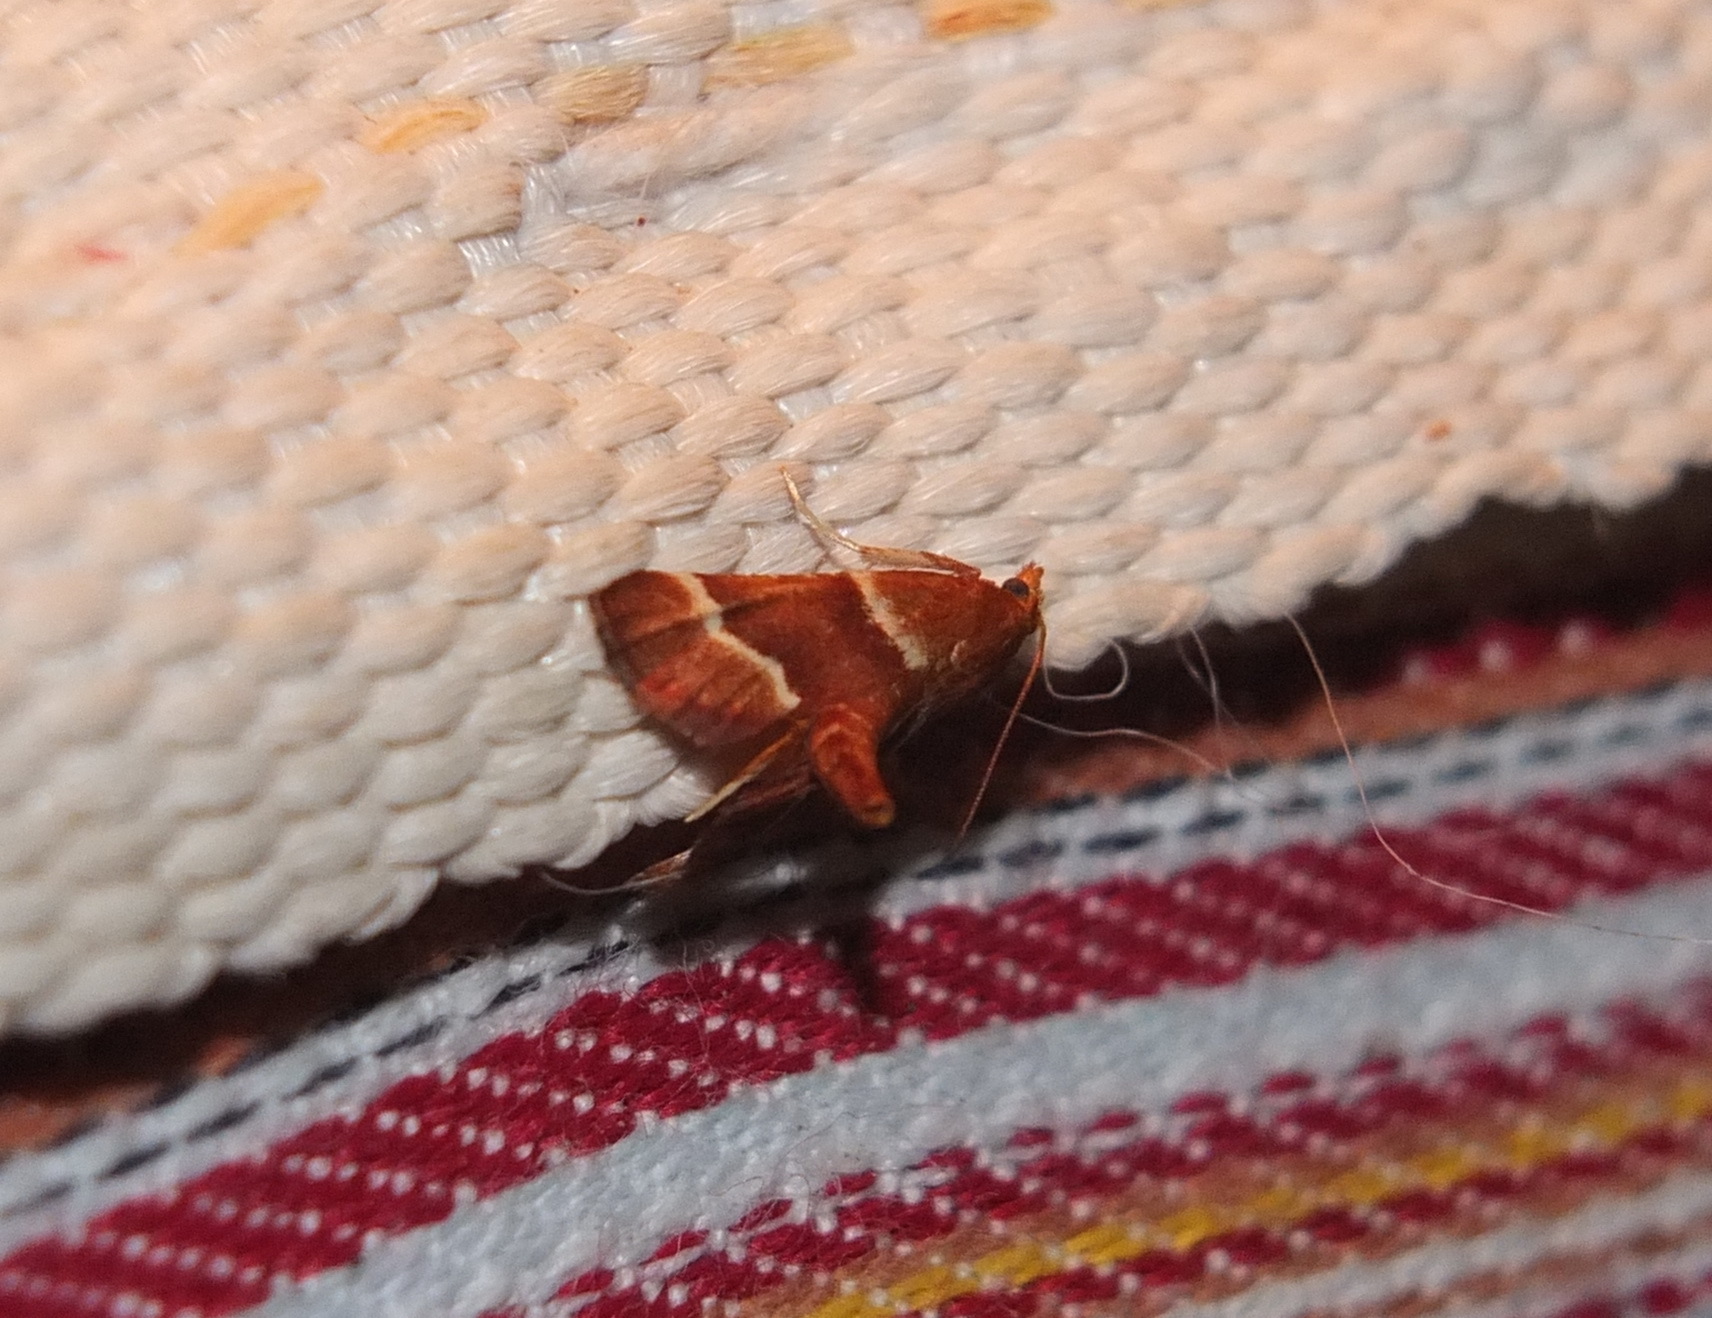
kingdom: Animalia
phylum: Arthropoda
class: Insecta
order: Lepidoptera
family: Pyralidae
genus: Stemmatophora
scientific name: Stemmatophora combustalis
